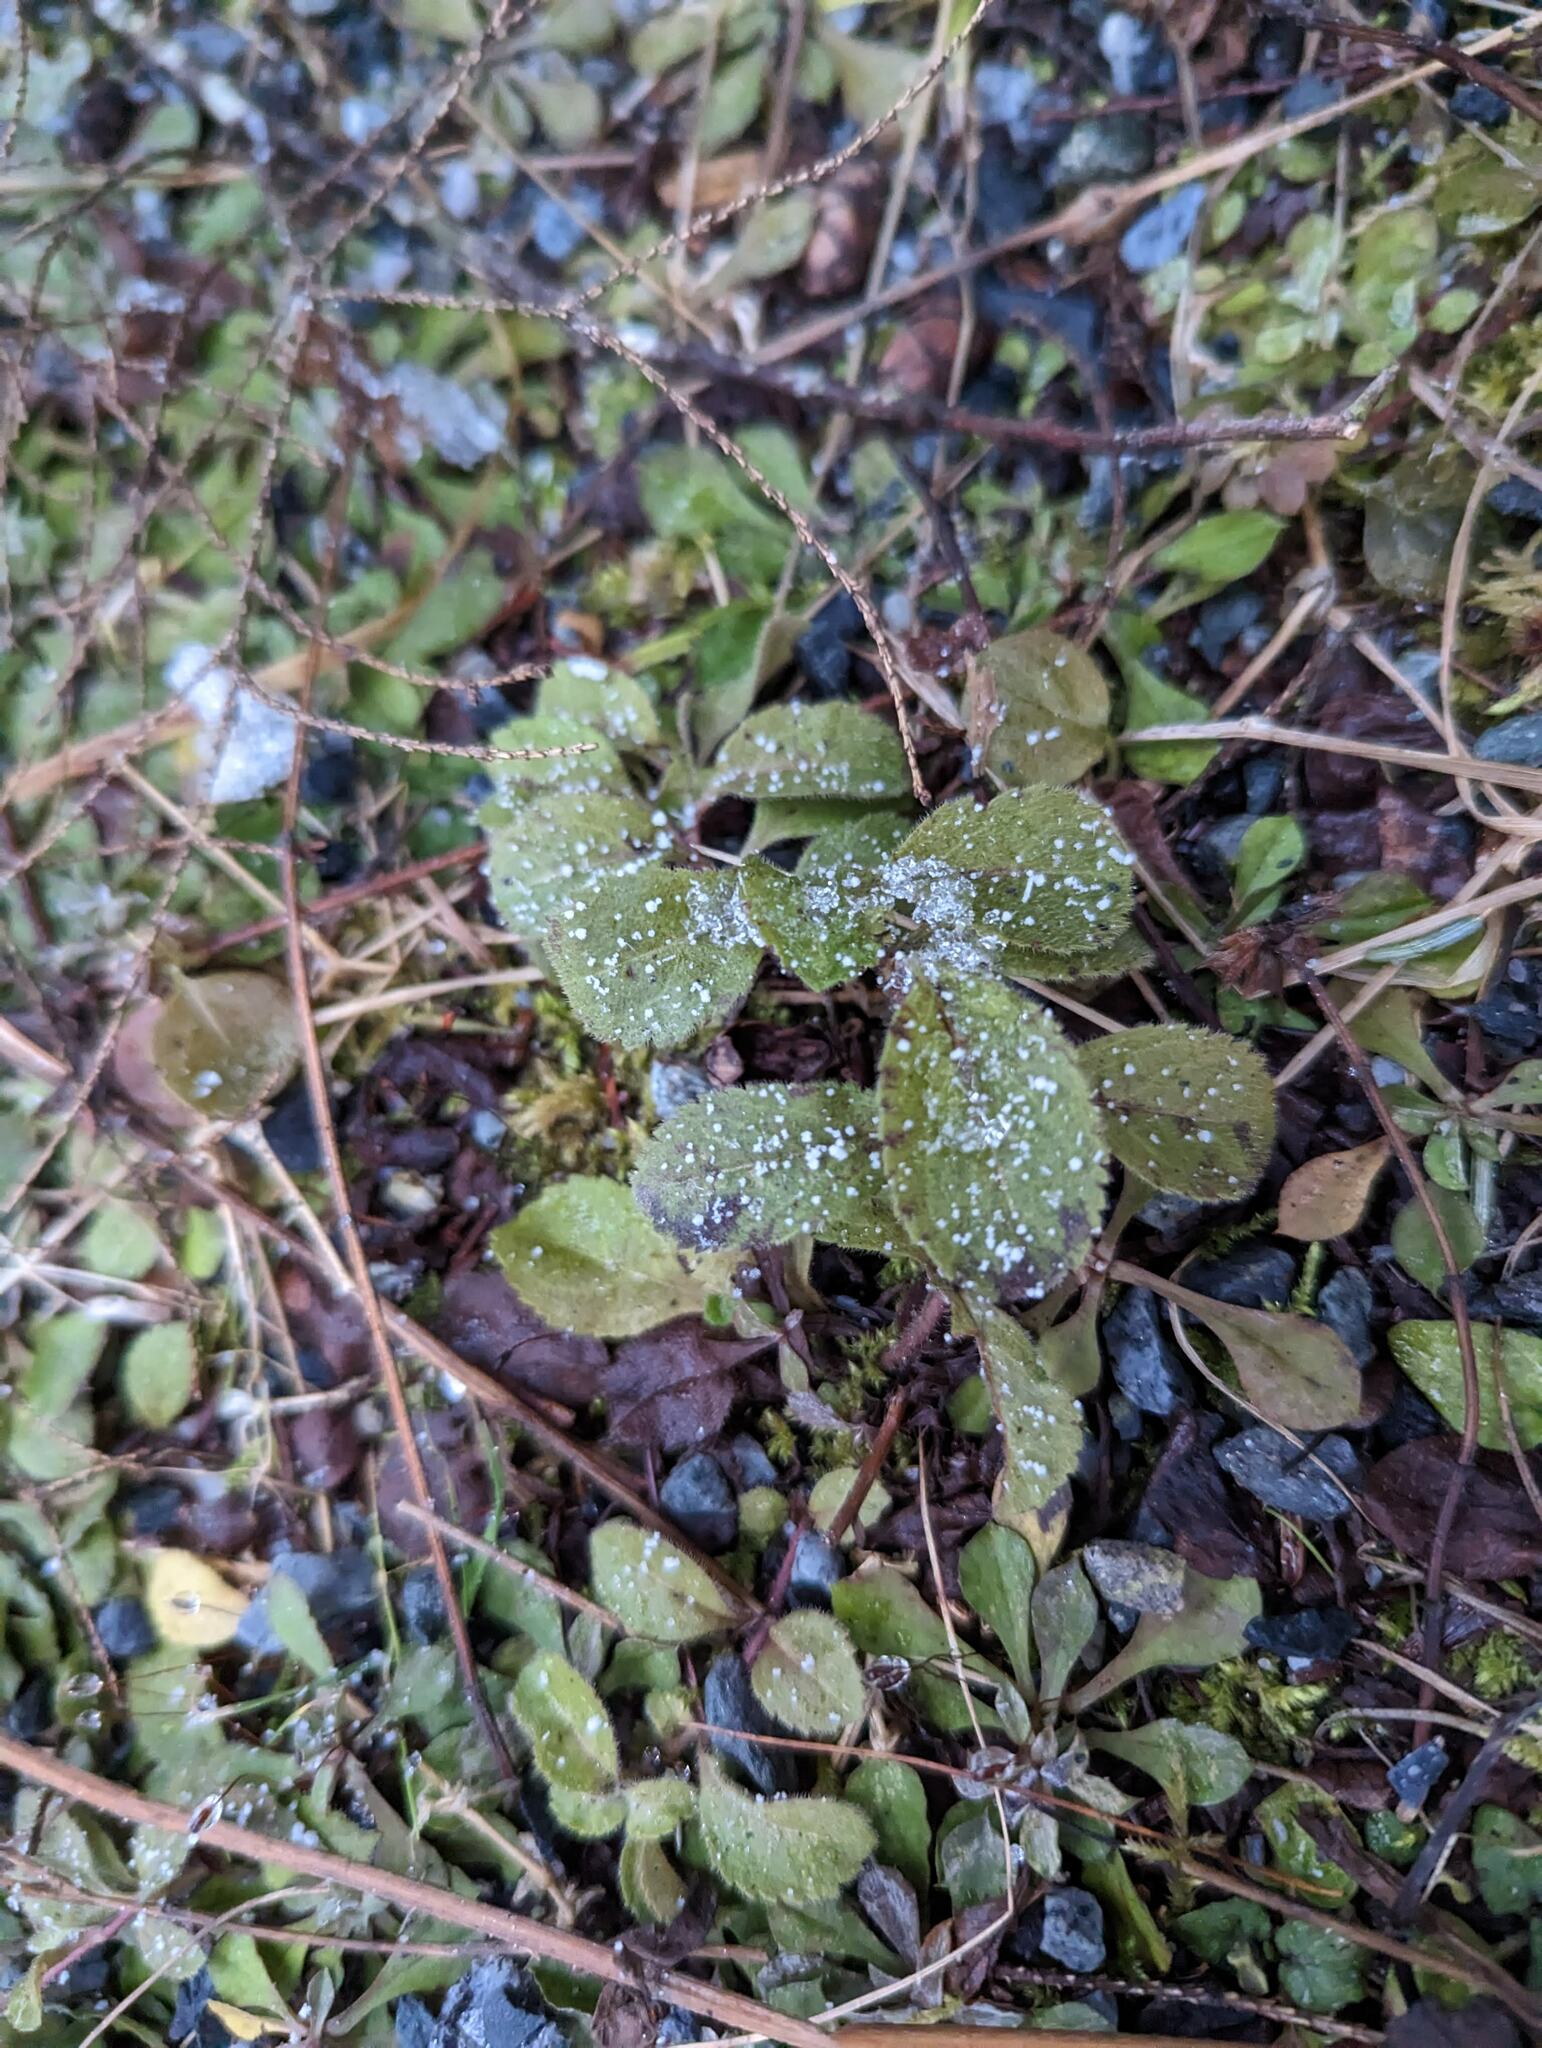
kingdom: Plantae
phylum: Tracheophyta
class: Magnoliopsida
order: Lamiales
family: Plantaginaceae
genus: Veronica
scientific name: Veronica officinalis
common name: Common speedwell
